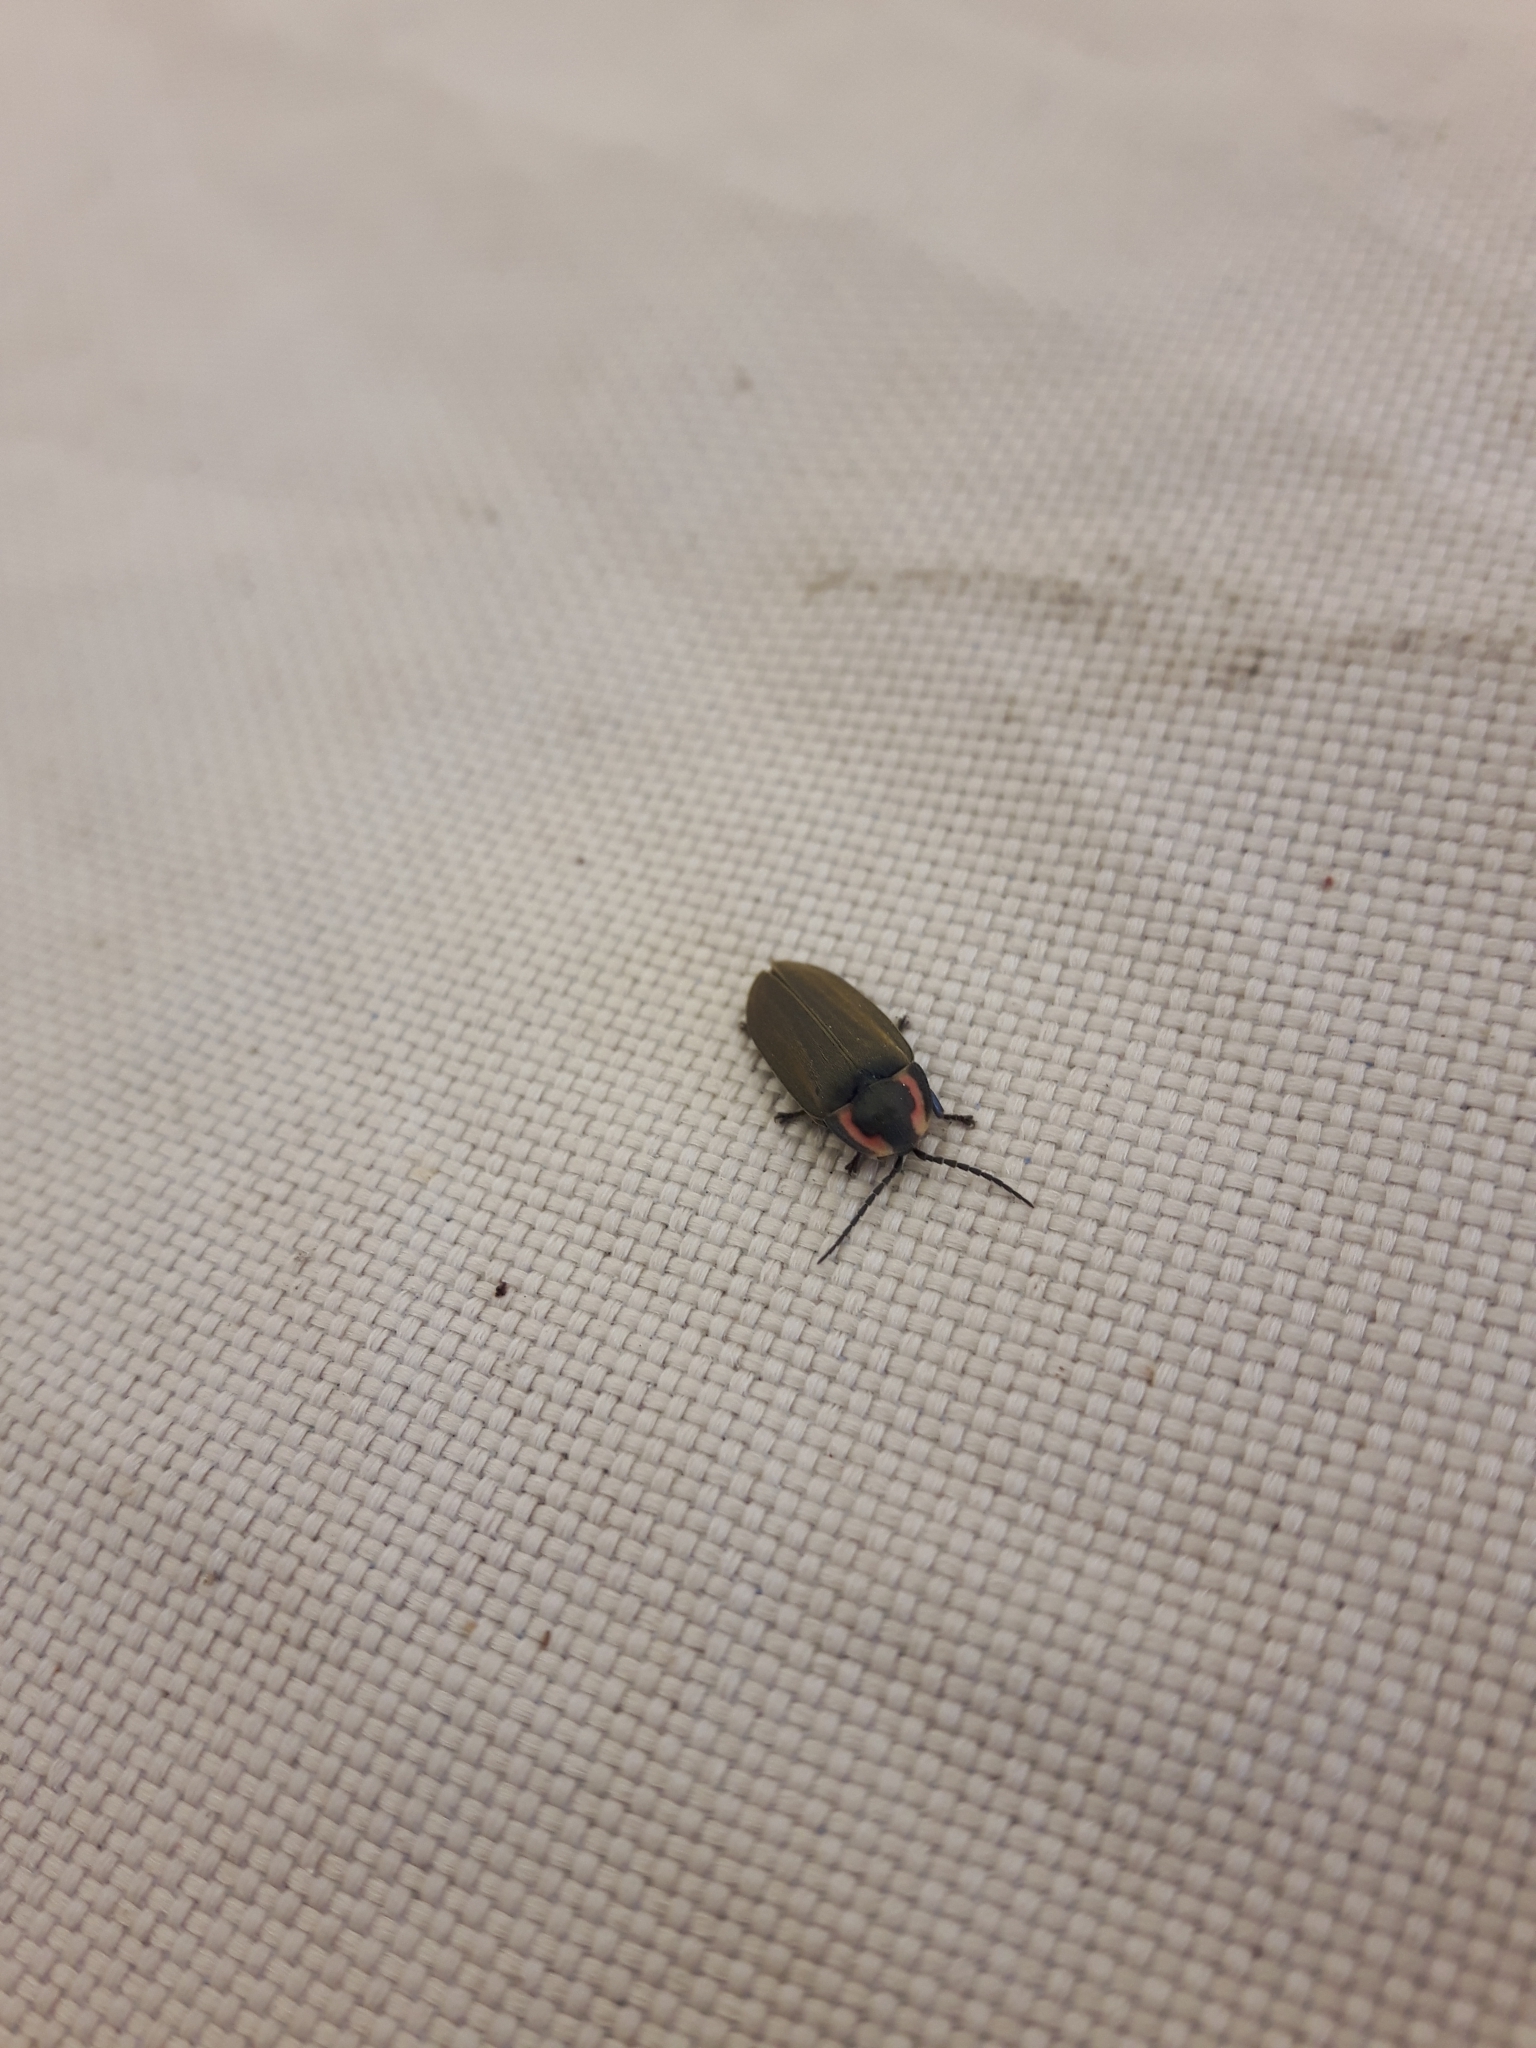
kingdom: Animalia
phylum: Arthropoda
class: Insecta
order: Coleoptera
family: Lampyridae
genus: Photinus
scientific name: Photinus corrusca
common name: Winter firefly
